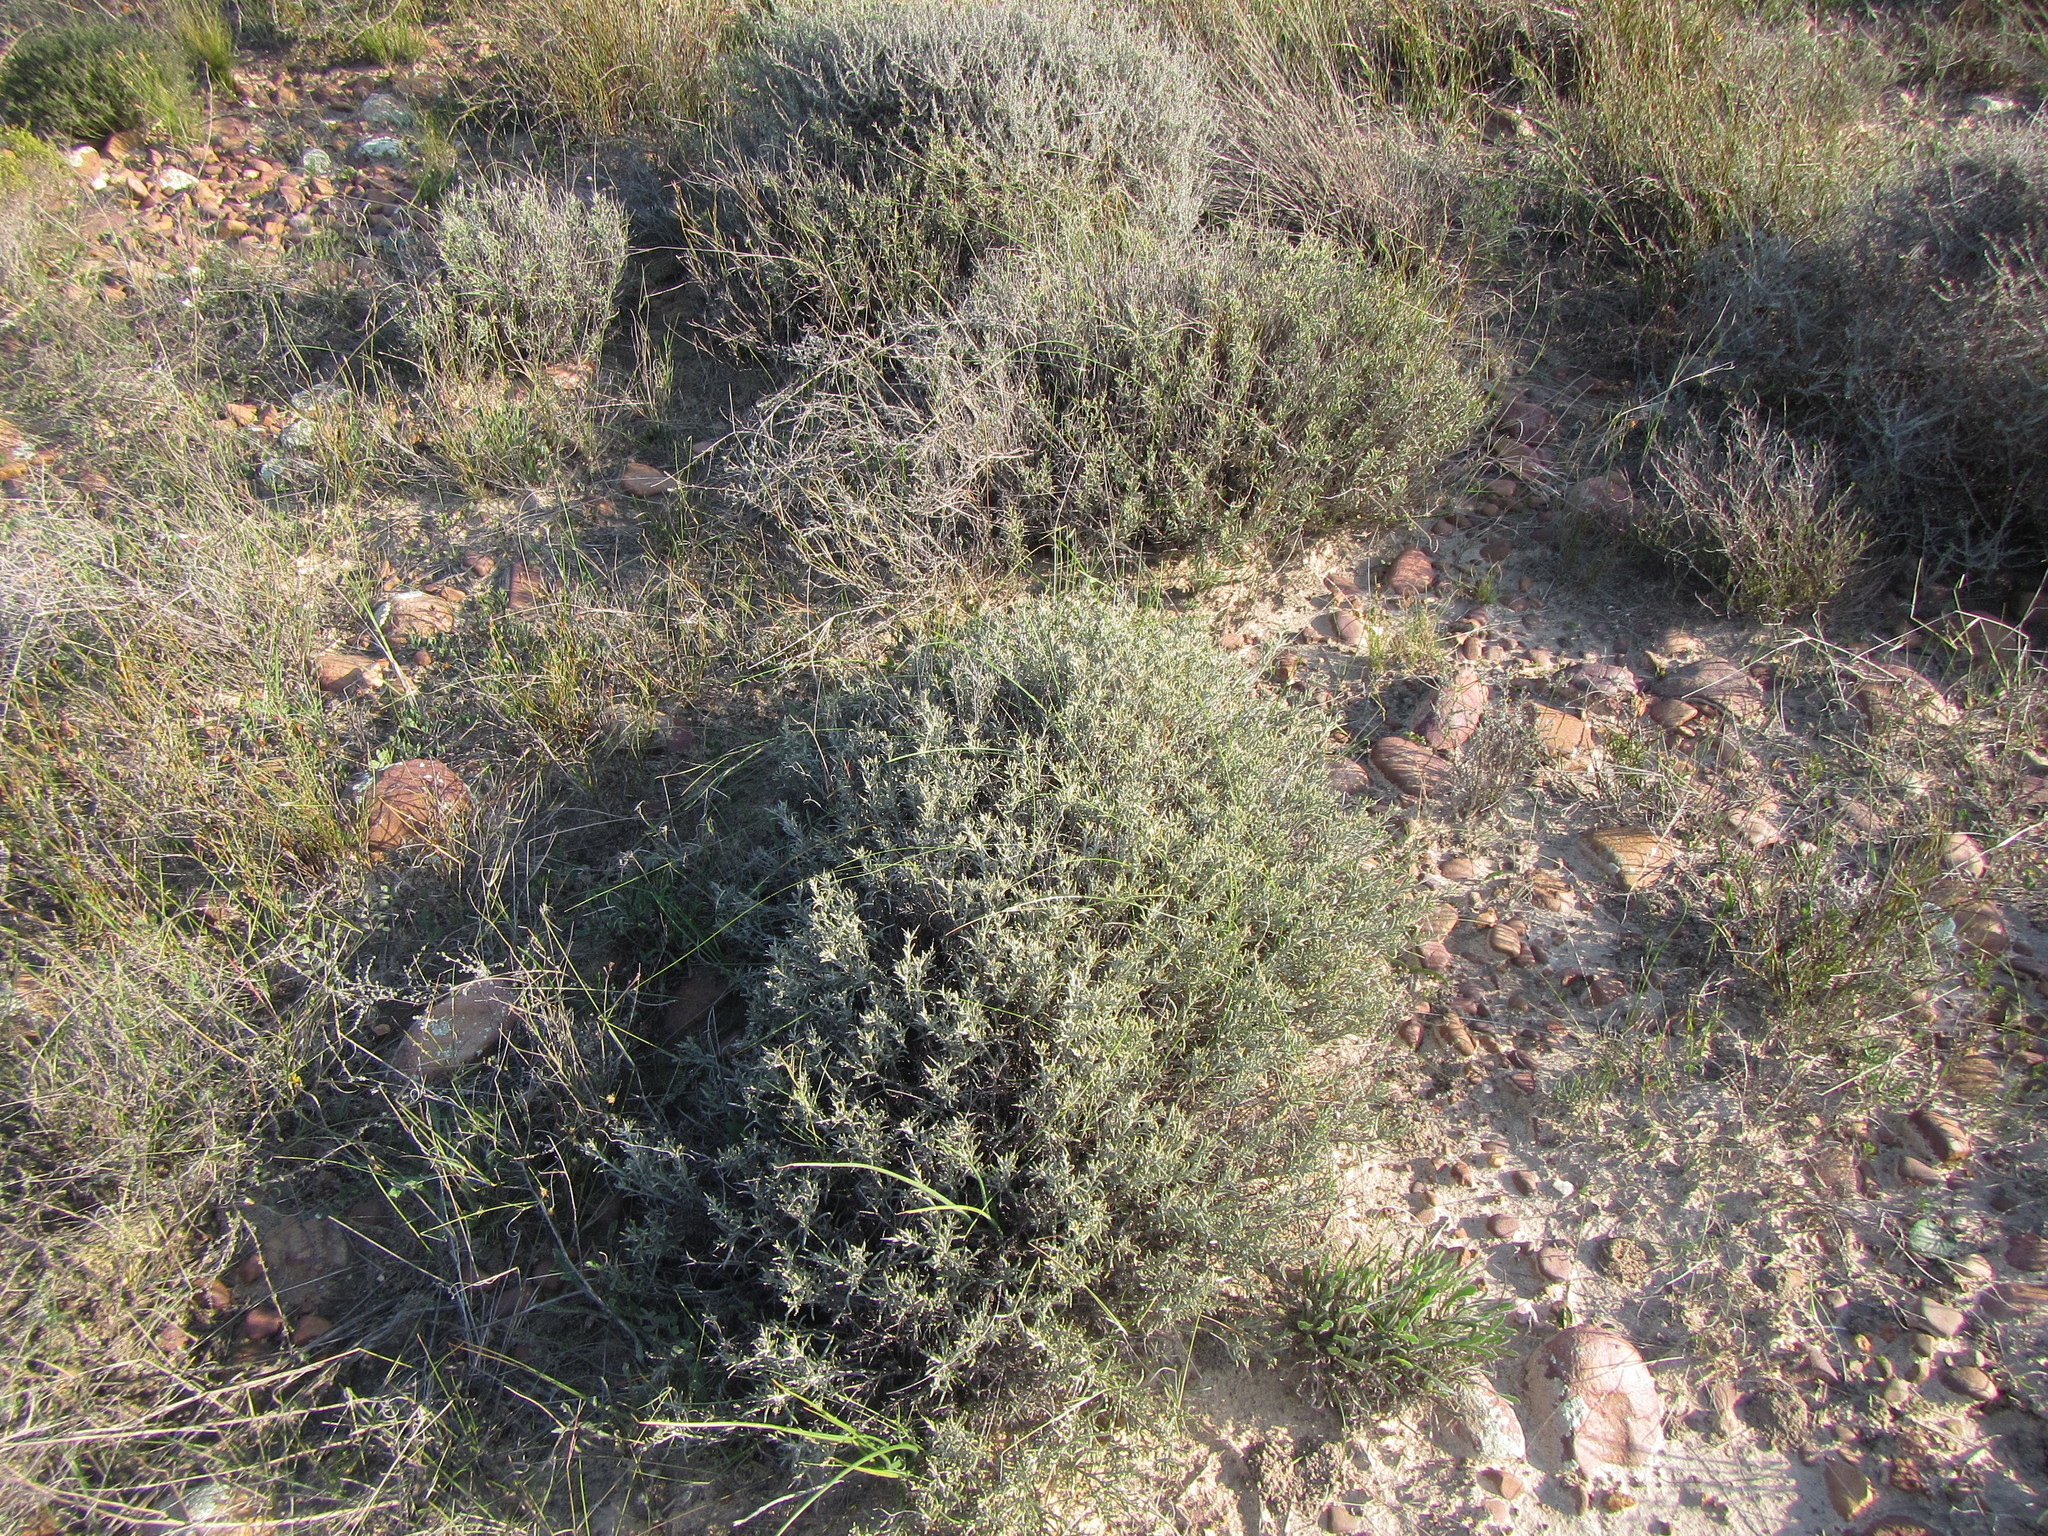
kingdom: Plantae
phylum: Tracheophyta
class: Magnoliopsida
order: Asterales
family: Asteraceae
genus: Heterolepis
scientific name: Heterolepis peduncularis
